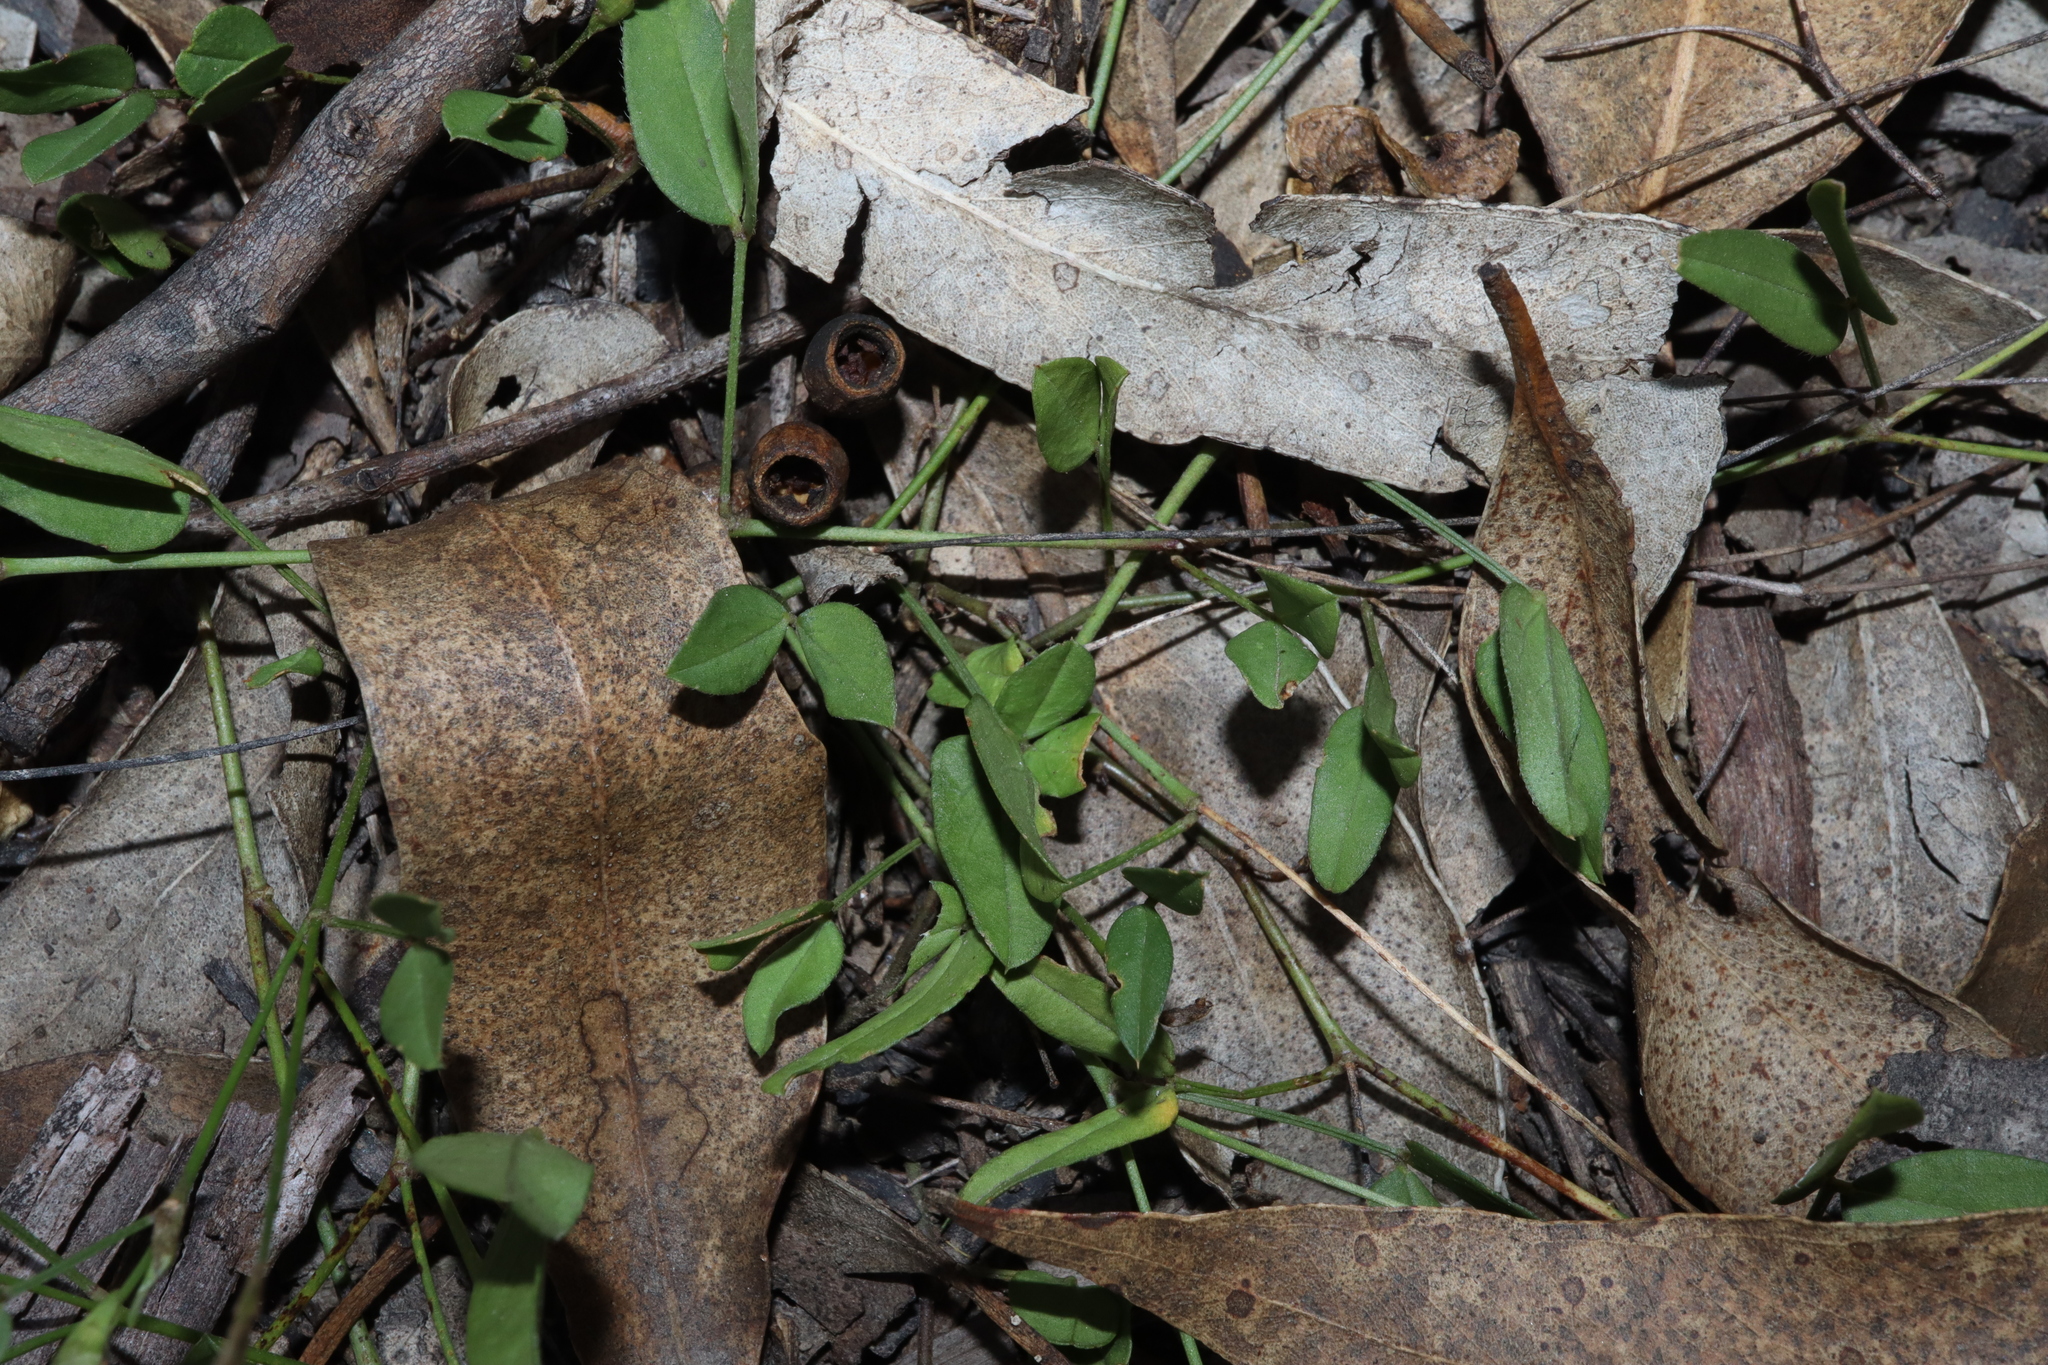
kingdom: Plantae
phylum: Tracheophyta
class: Magnoliopsida
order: Fabales
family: Fabaceae
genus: Zornia
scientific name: Zornia dyctiocarpa
